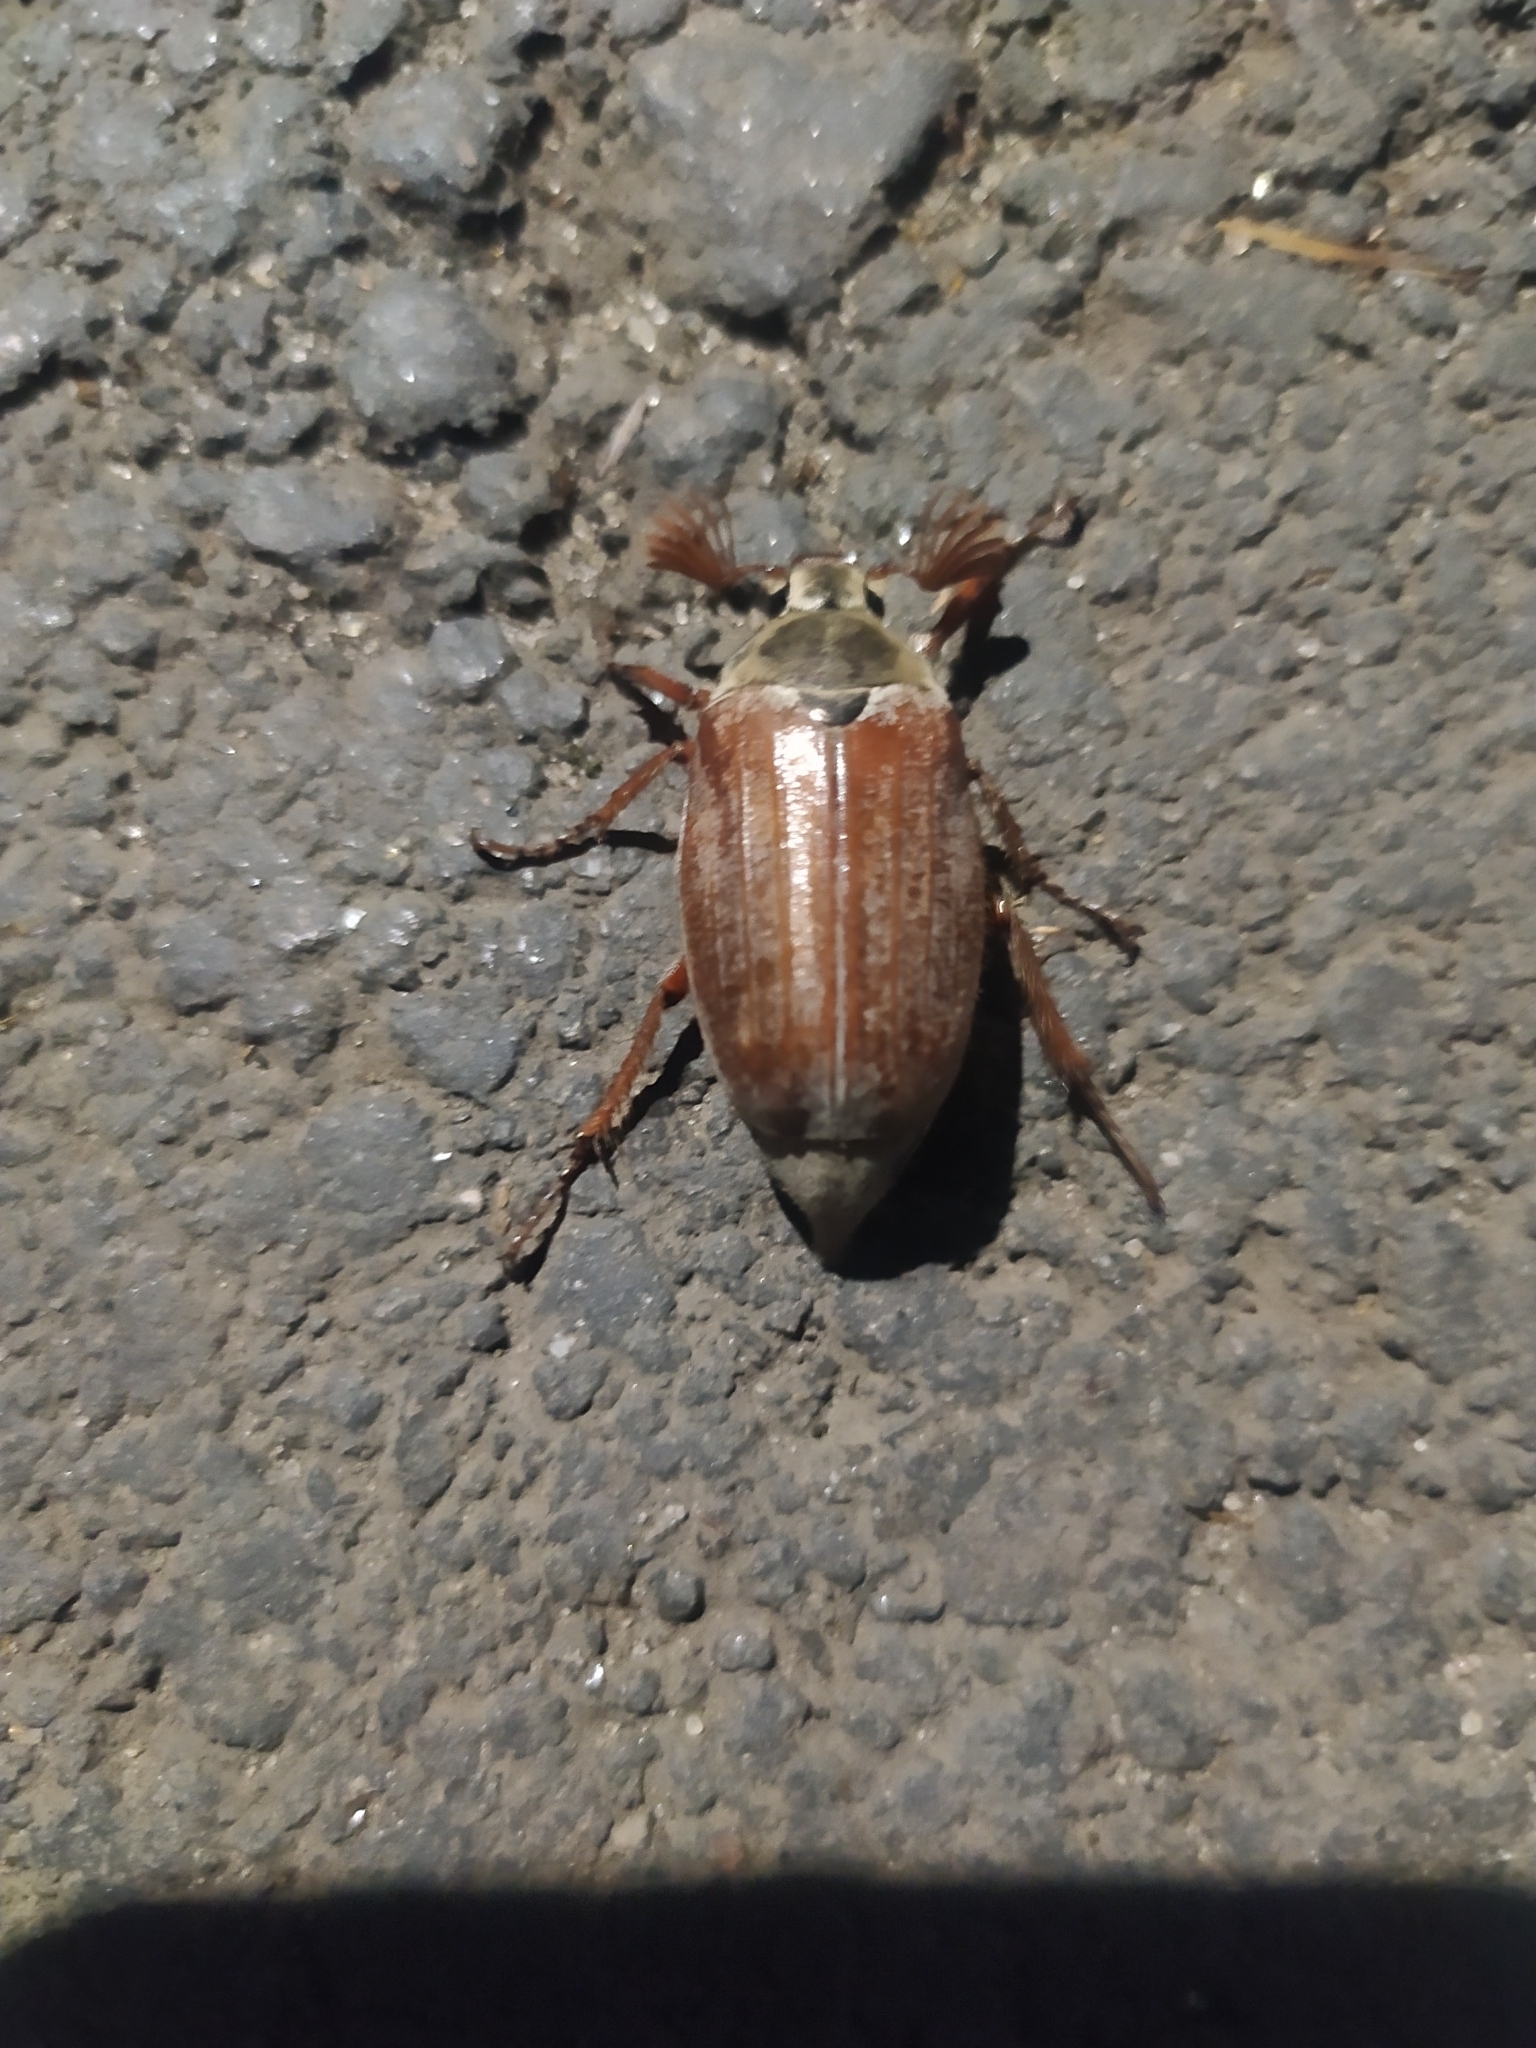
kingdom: Animalia
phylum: Arthropoda
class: Insecta
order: Coleoptera
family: Scarabaeidae
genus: Melolontha
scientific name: Melolontha melolontha
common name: Cockchafer maybeetle
